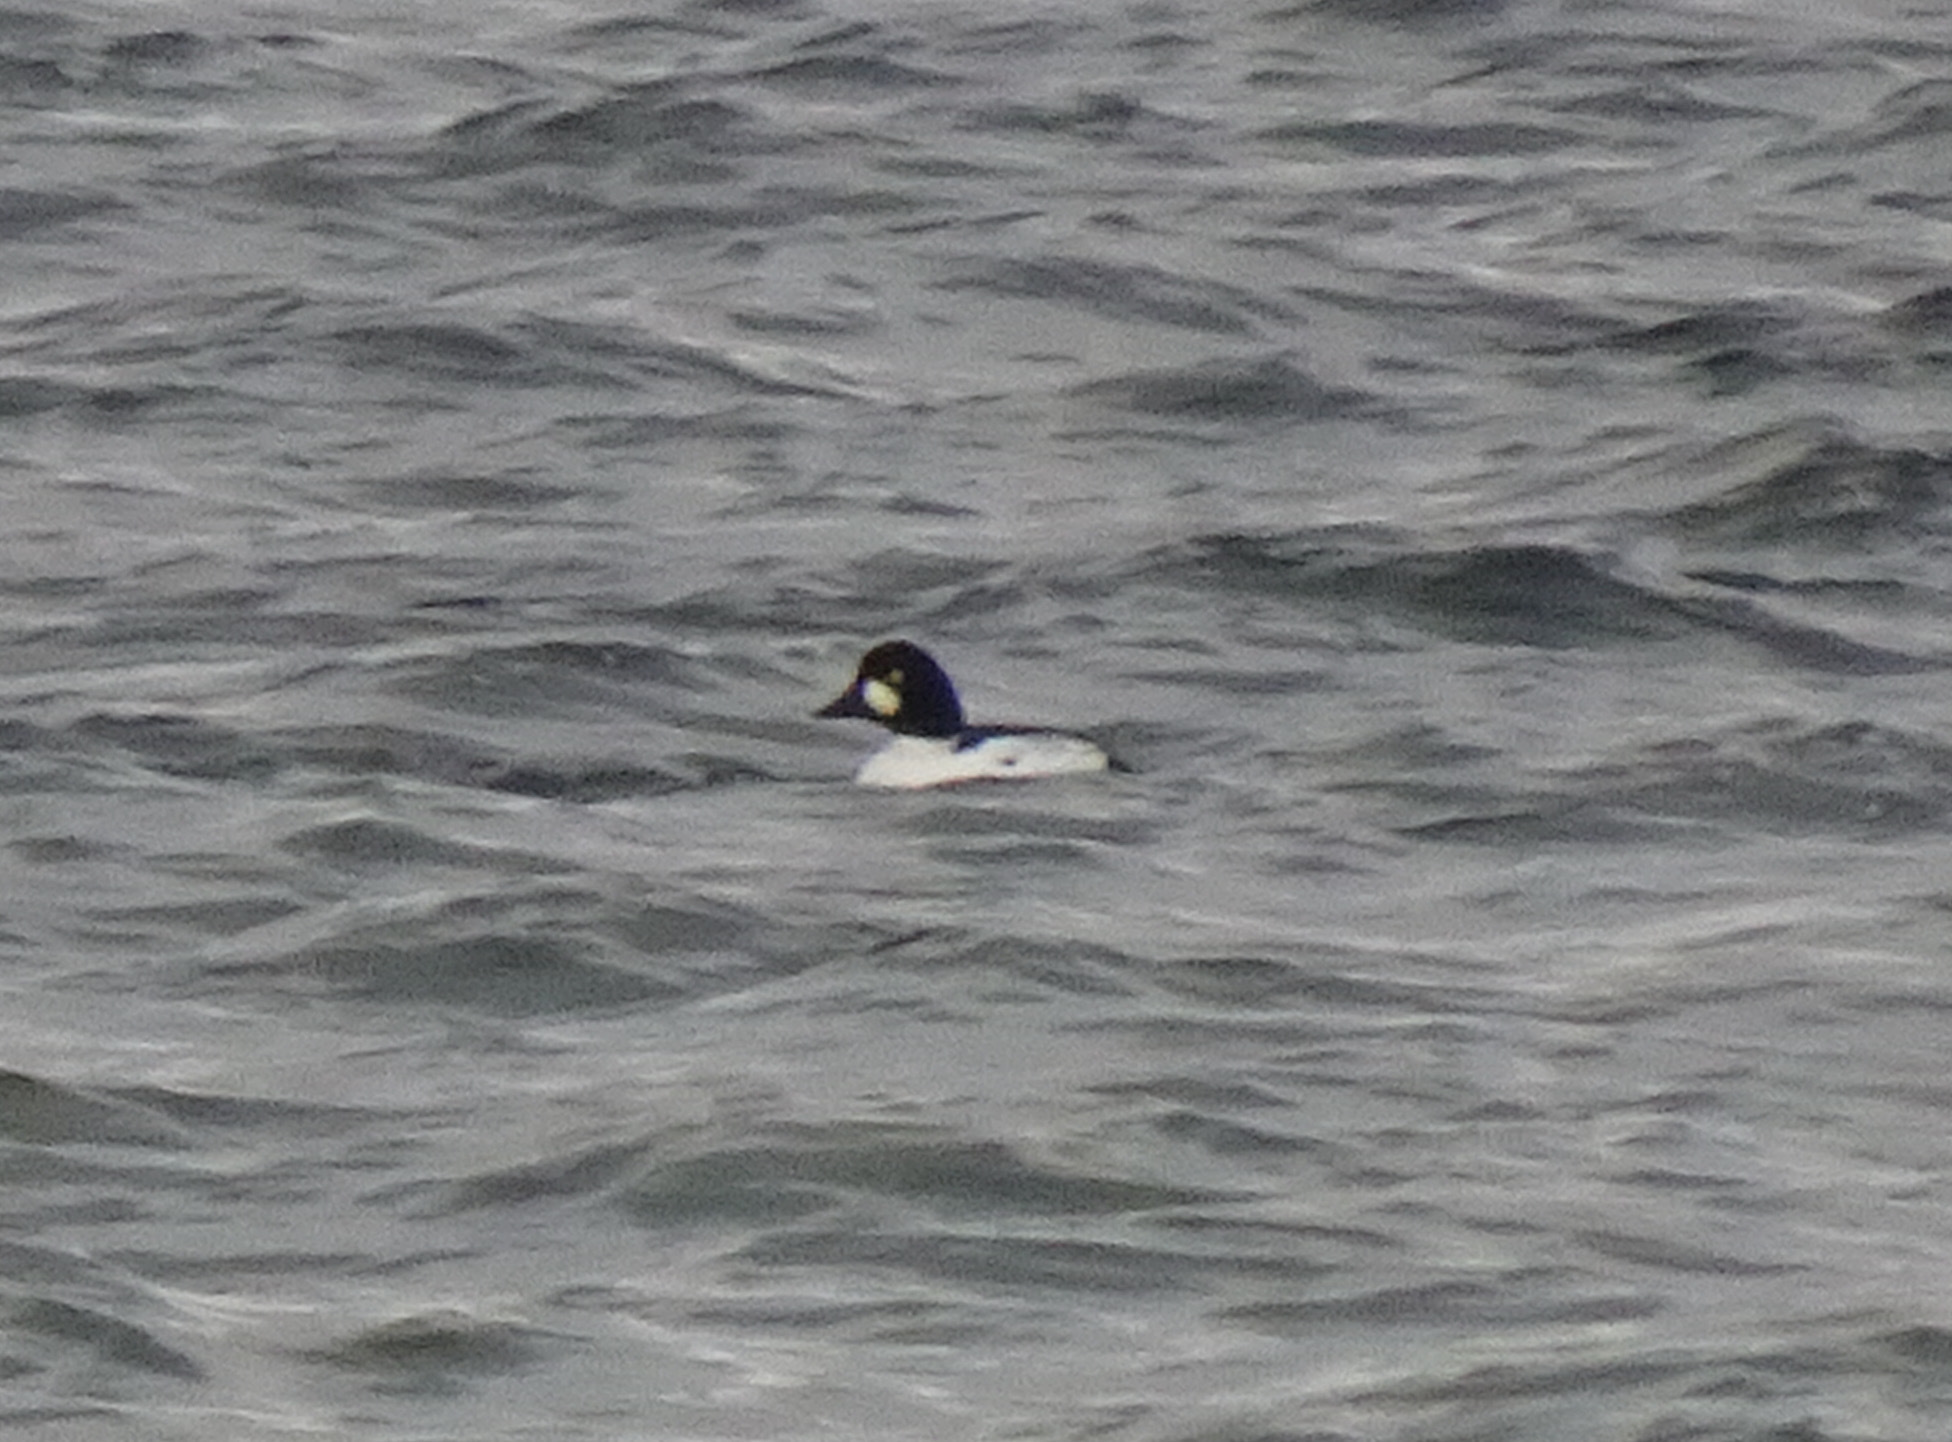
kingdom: Animalia
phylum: Chordata
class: Aves
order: Anseriformes
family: Anatidae
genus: Bucephala
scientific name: Bucephala clangula
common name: Common goldeneye
